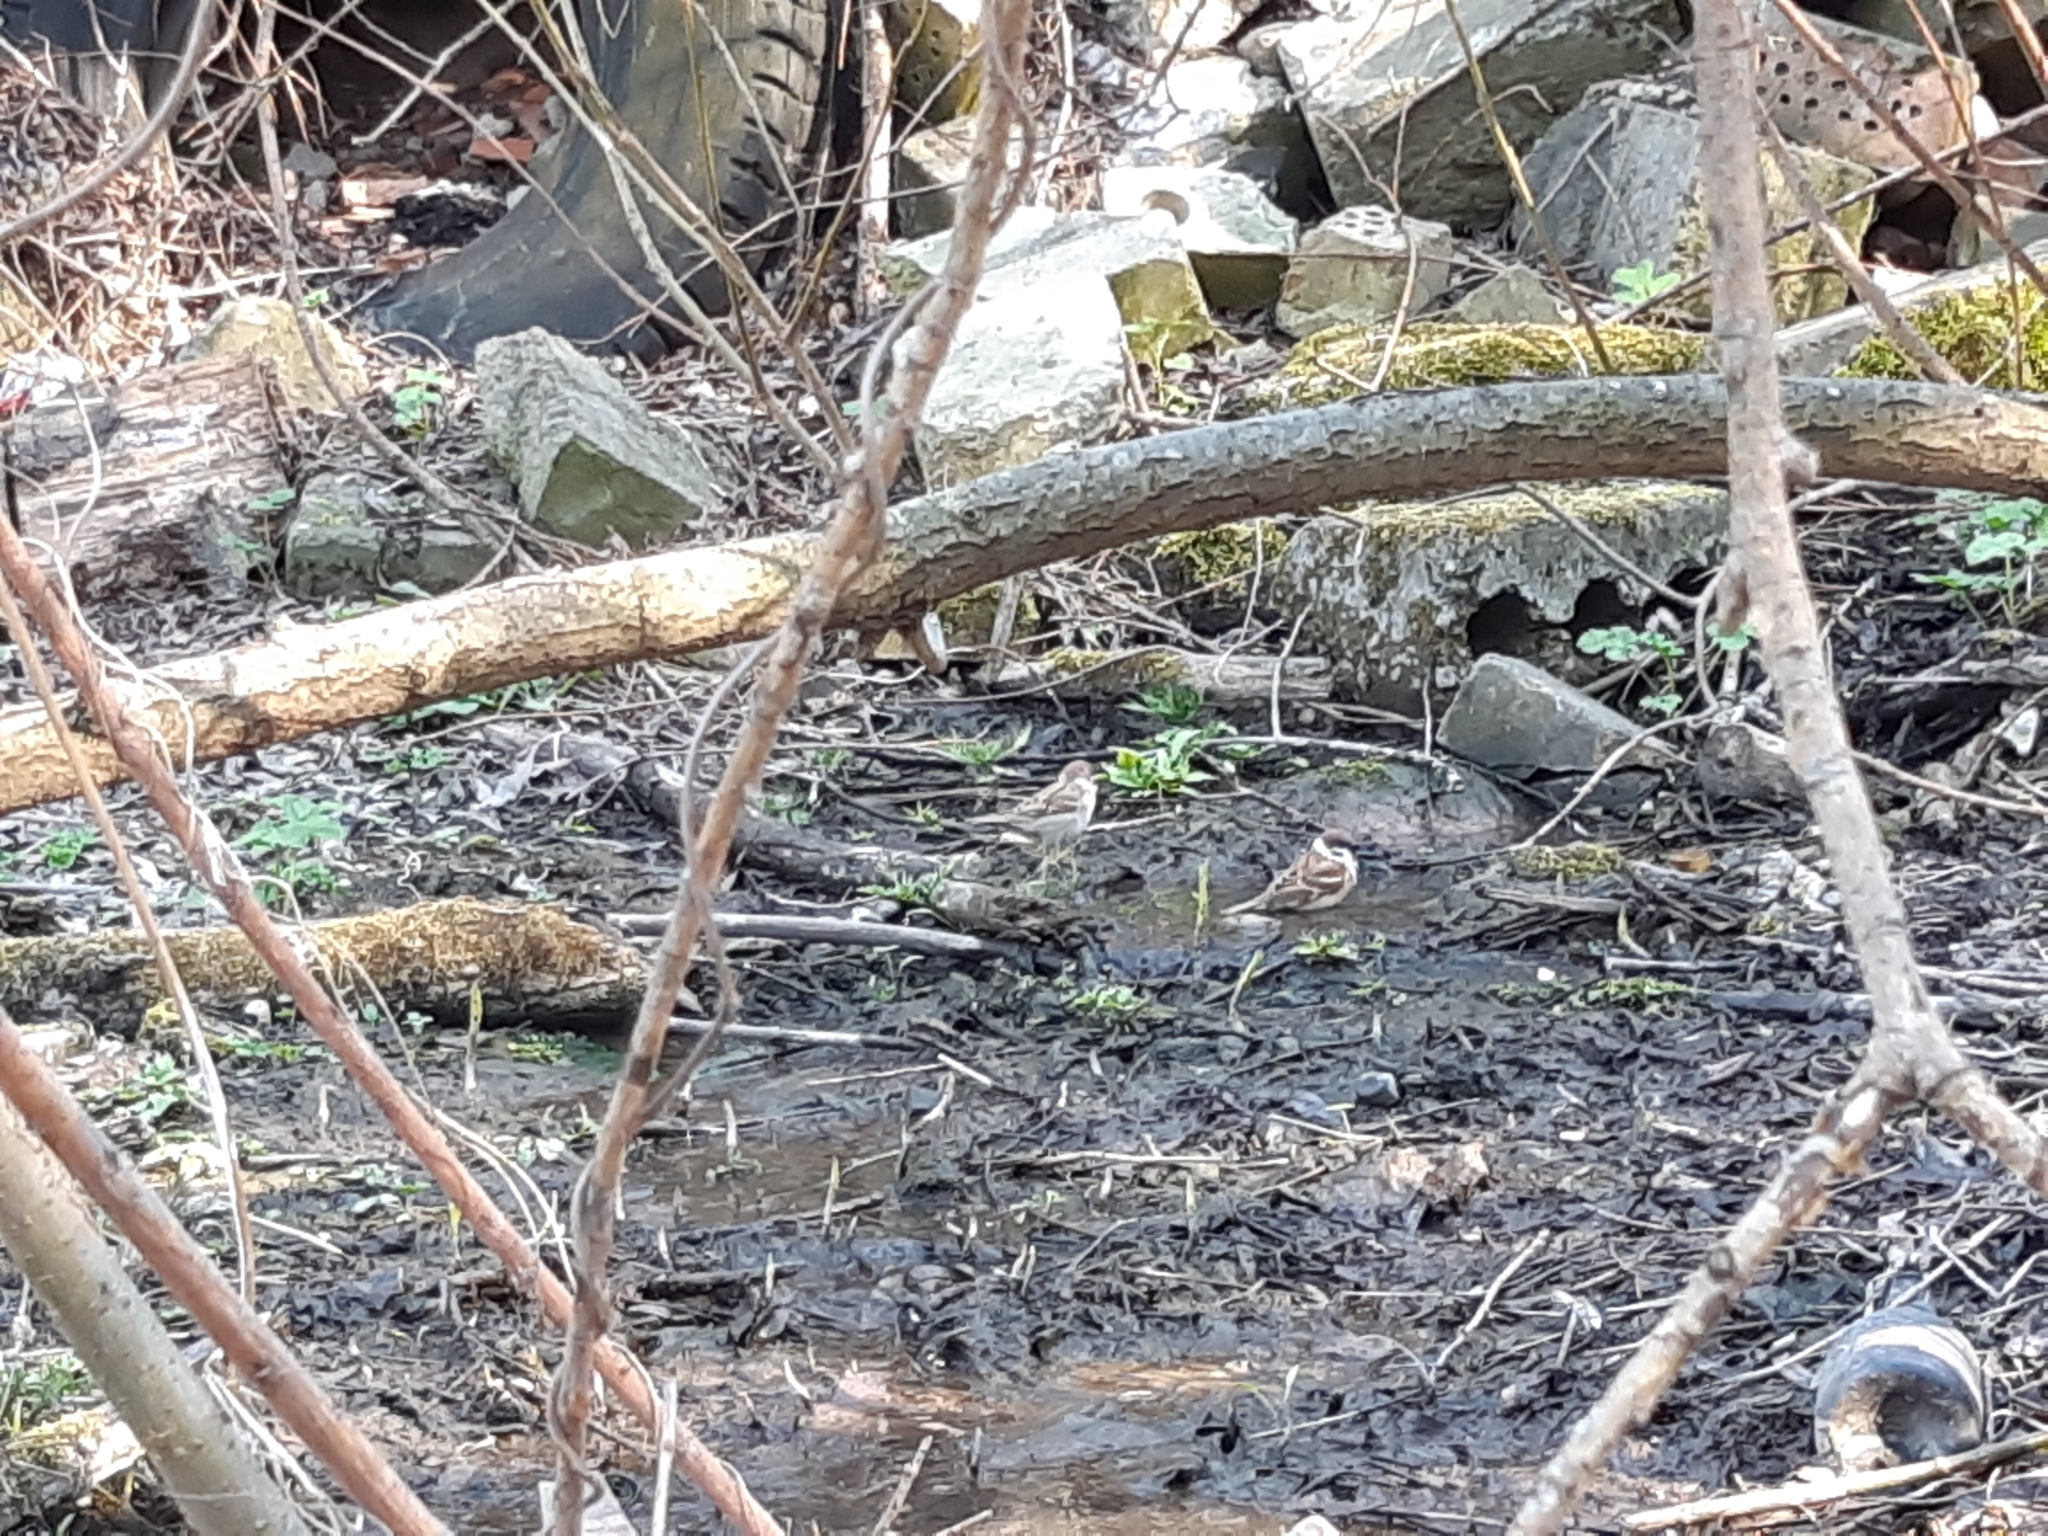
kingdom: Animalia
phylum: Chordata
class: Aves
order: Passeriformes
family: Passeridae
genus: Passer
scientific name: Passer montanus
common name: Eurasian tree sparrow
